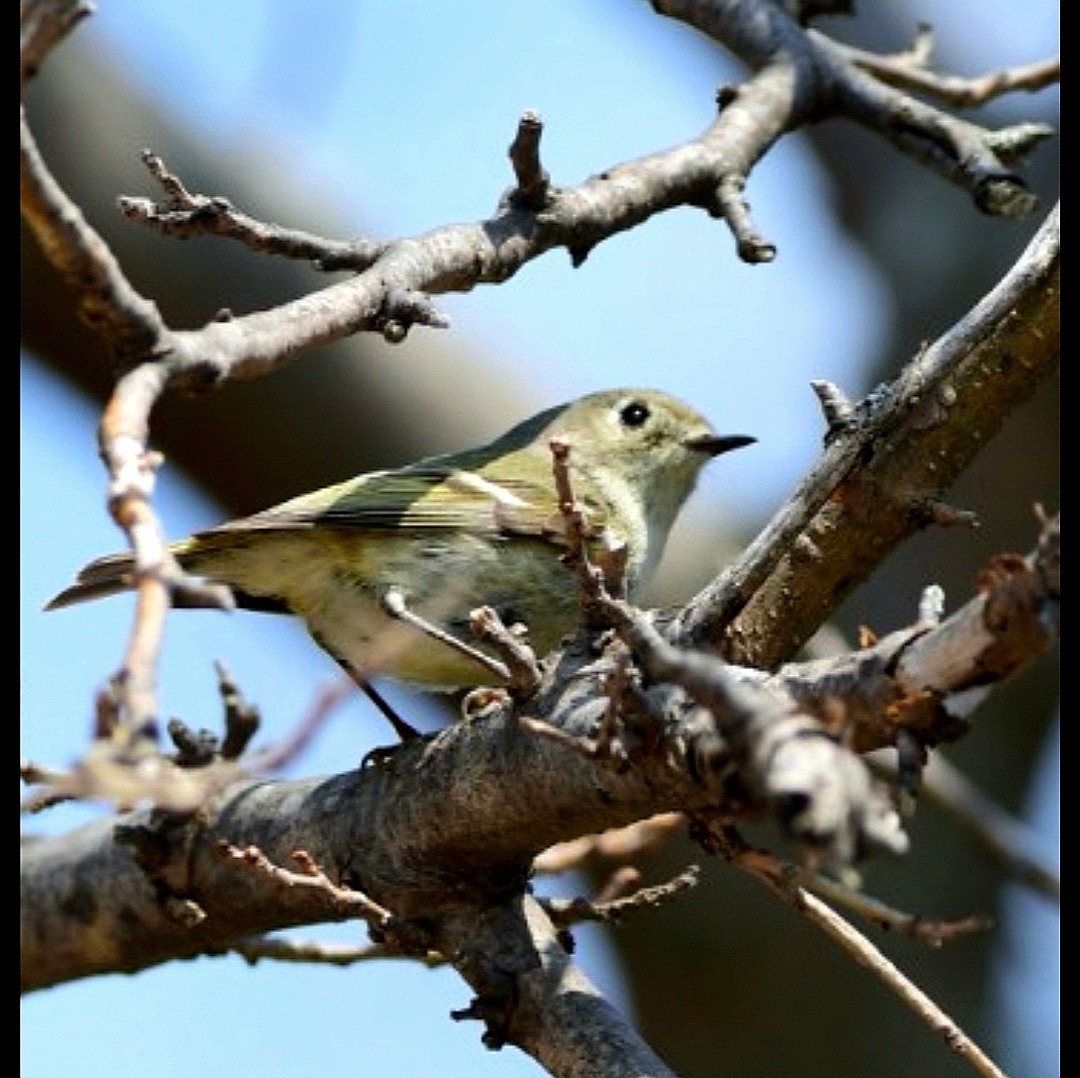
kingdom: Animalia
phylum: Chordata
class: Aves
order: Passeriformes
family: Regulidae
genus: Regulus
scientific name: Regulus calendula
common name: Ruby-crowned kinglet
